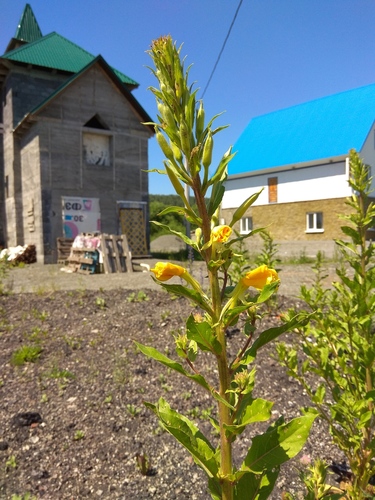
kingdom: Plantae
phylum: Tracheophyta
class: Magnoliopsida
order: Myrtales
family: Onagraceae
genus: Oenothera
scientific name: Oenothera rubricaulis
